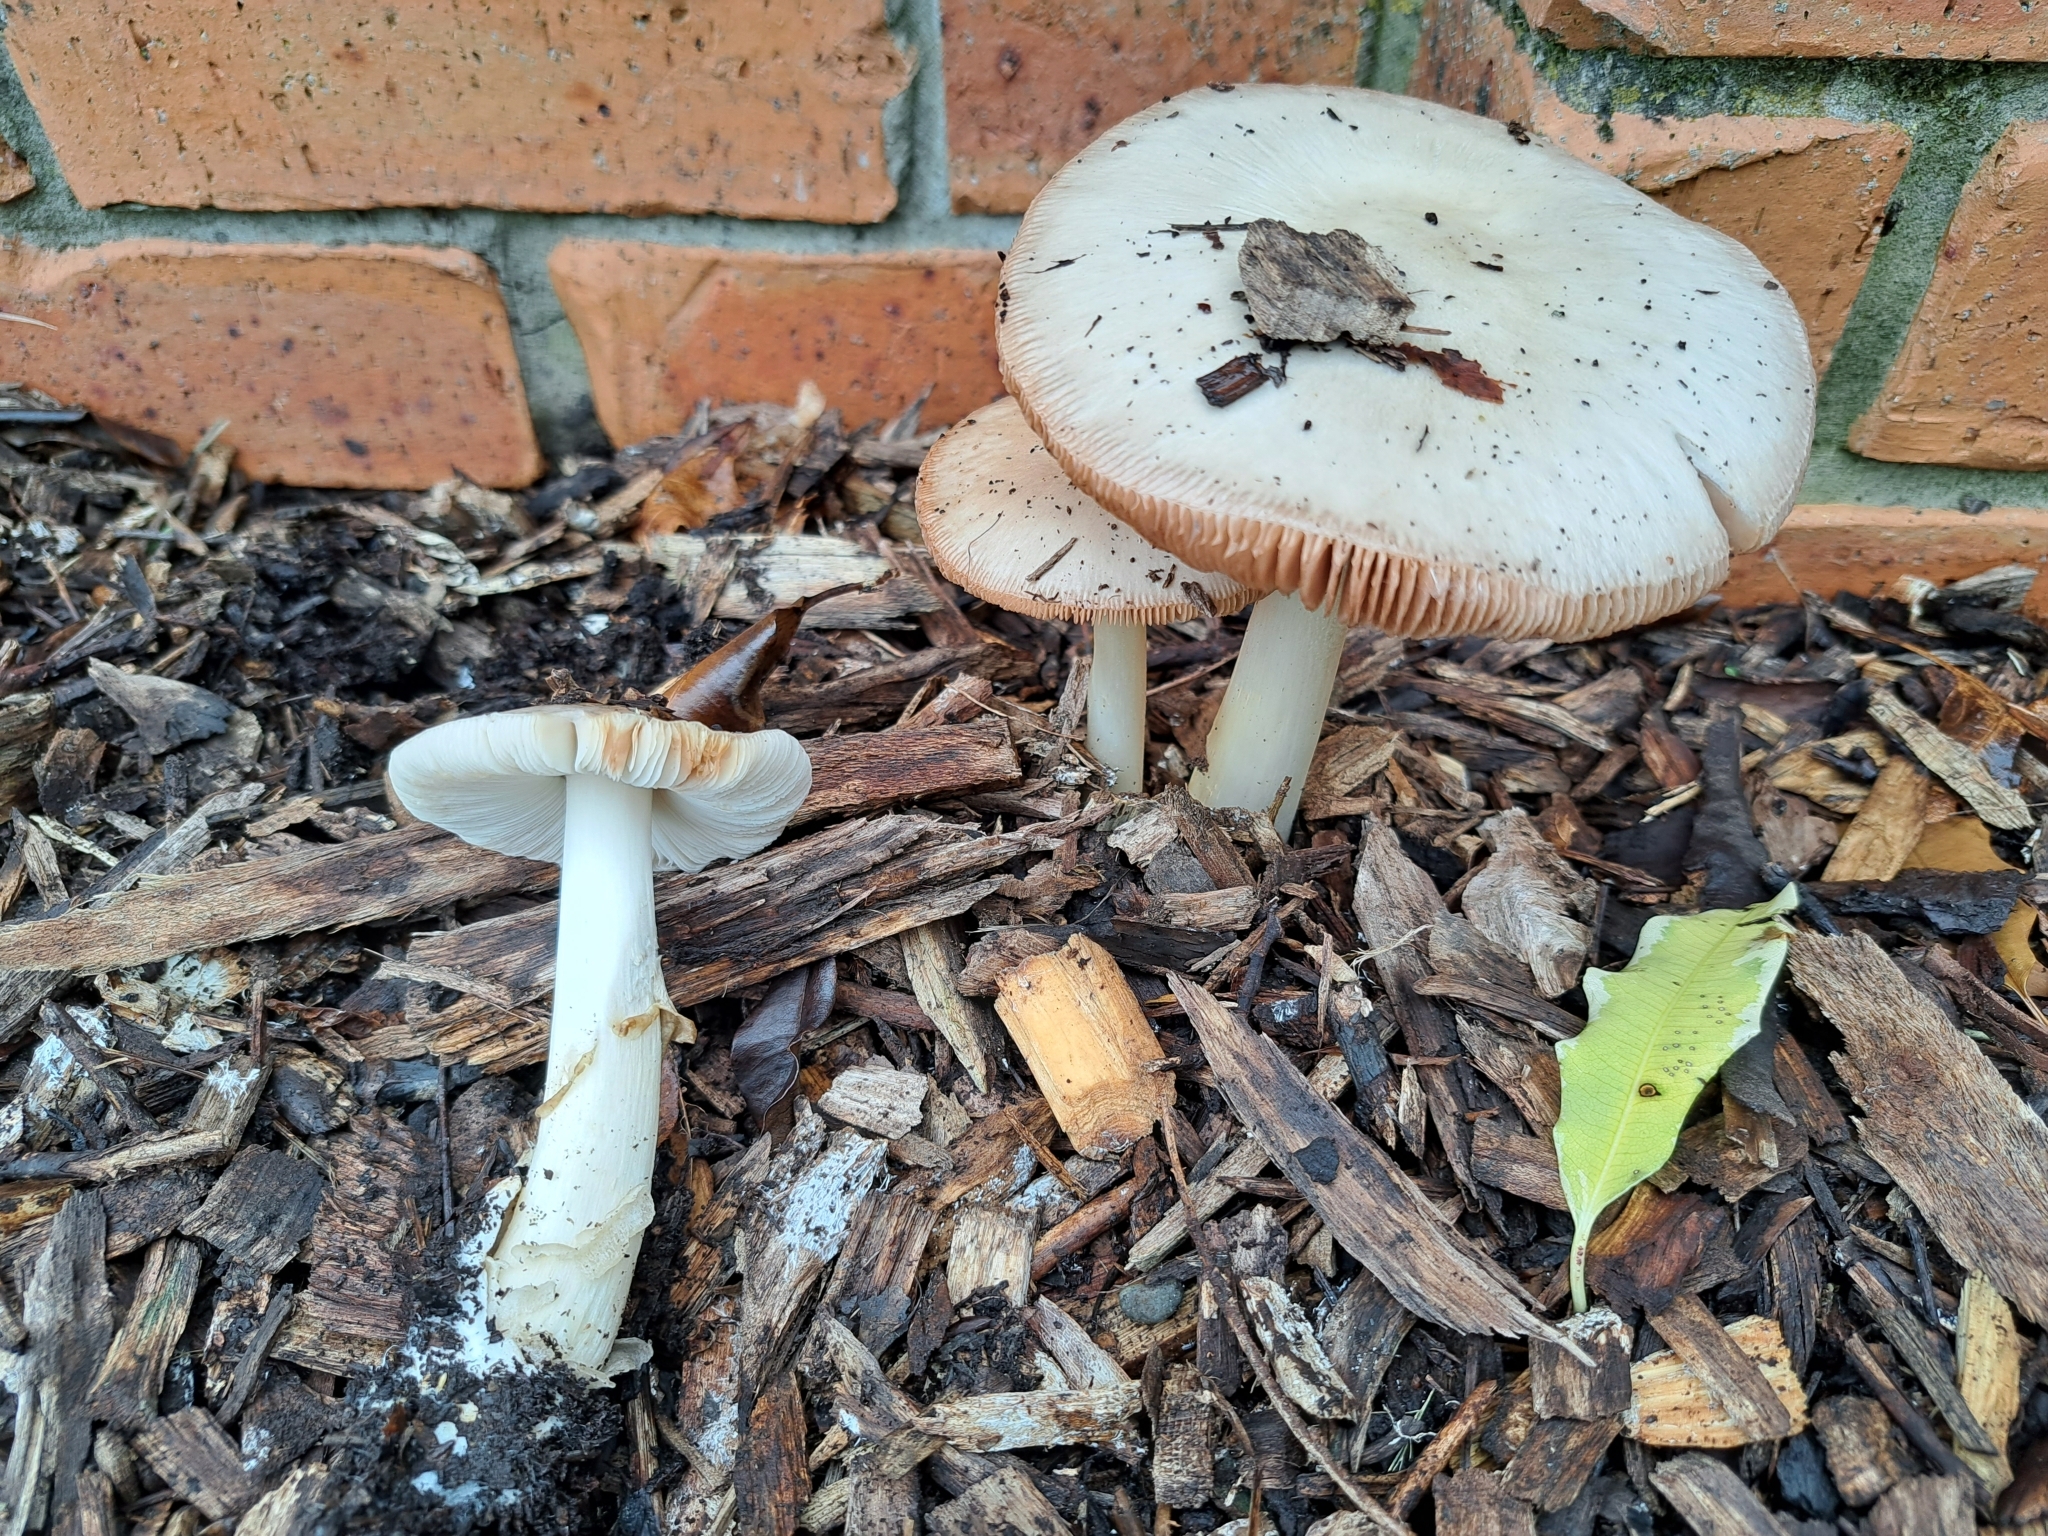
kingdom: Fungi
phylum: Basidiomycota
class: Agaricomycetes
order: Agaricales
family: Pluteaceae
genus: Volvopluteus
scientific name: Volvopluteus gloiocephalus
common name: Stubble rosegill
